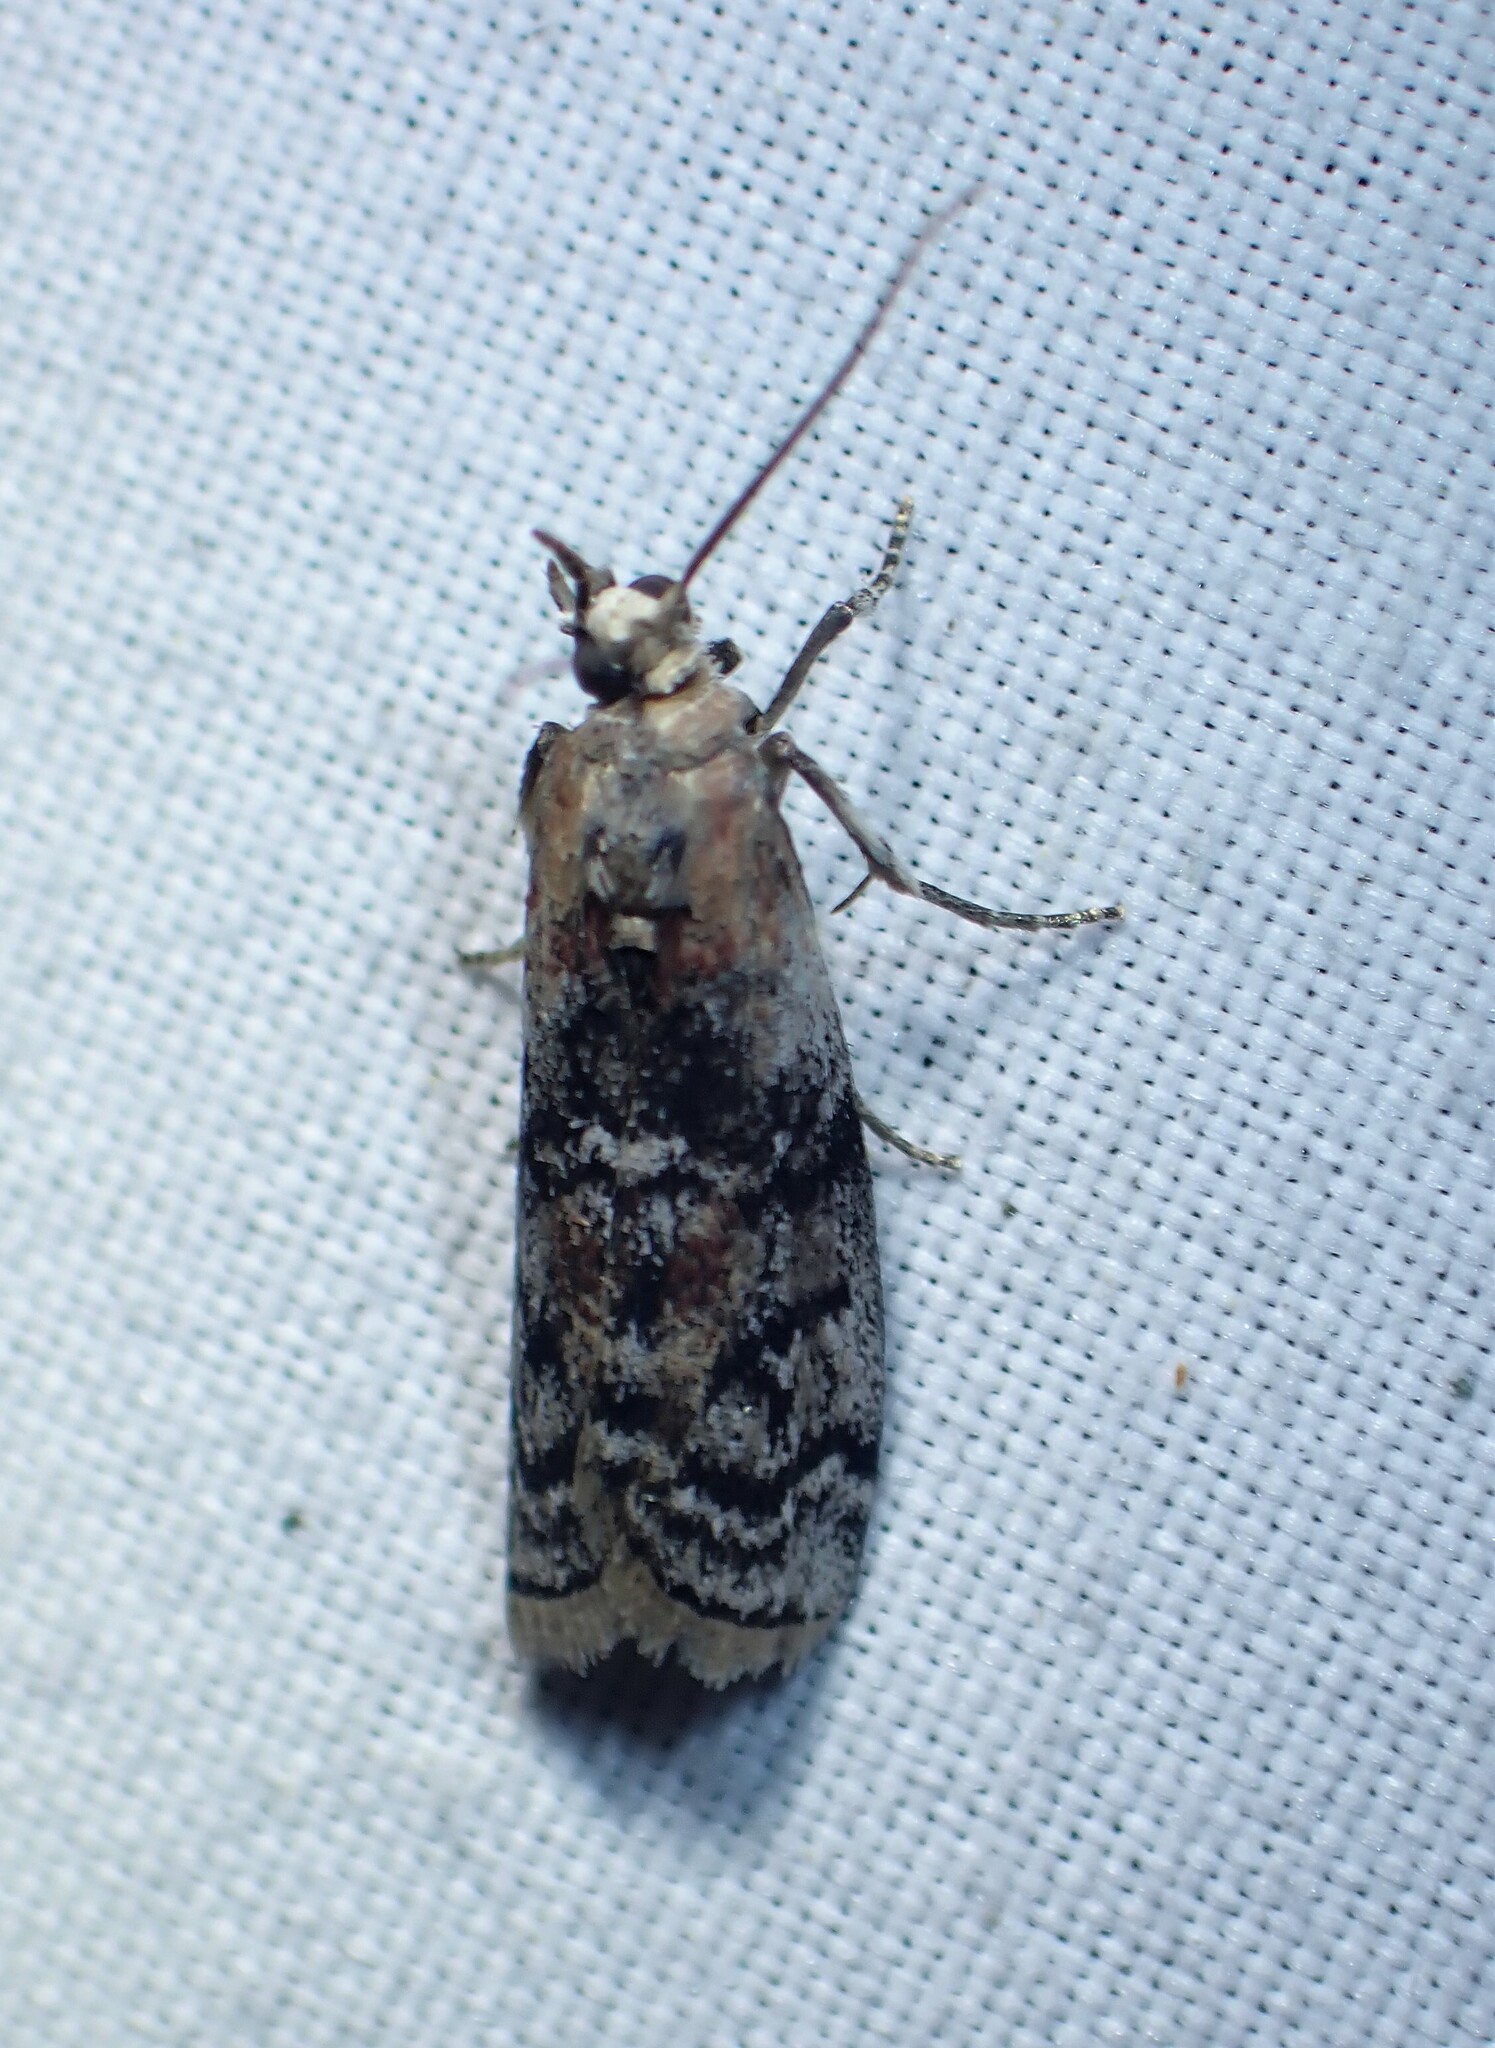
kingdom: Animalia
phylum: Arthropoda
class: Insecta
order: Lepidoptera
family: Pyralidae
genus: Glyptocera
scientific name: Glyptocera consobrinella
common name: Viburnum glyptocera moth
